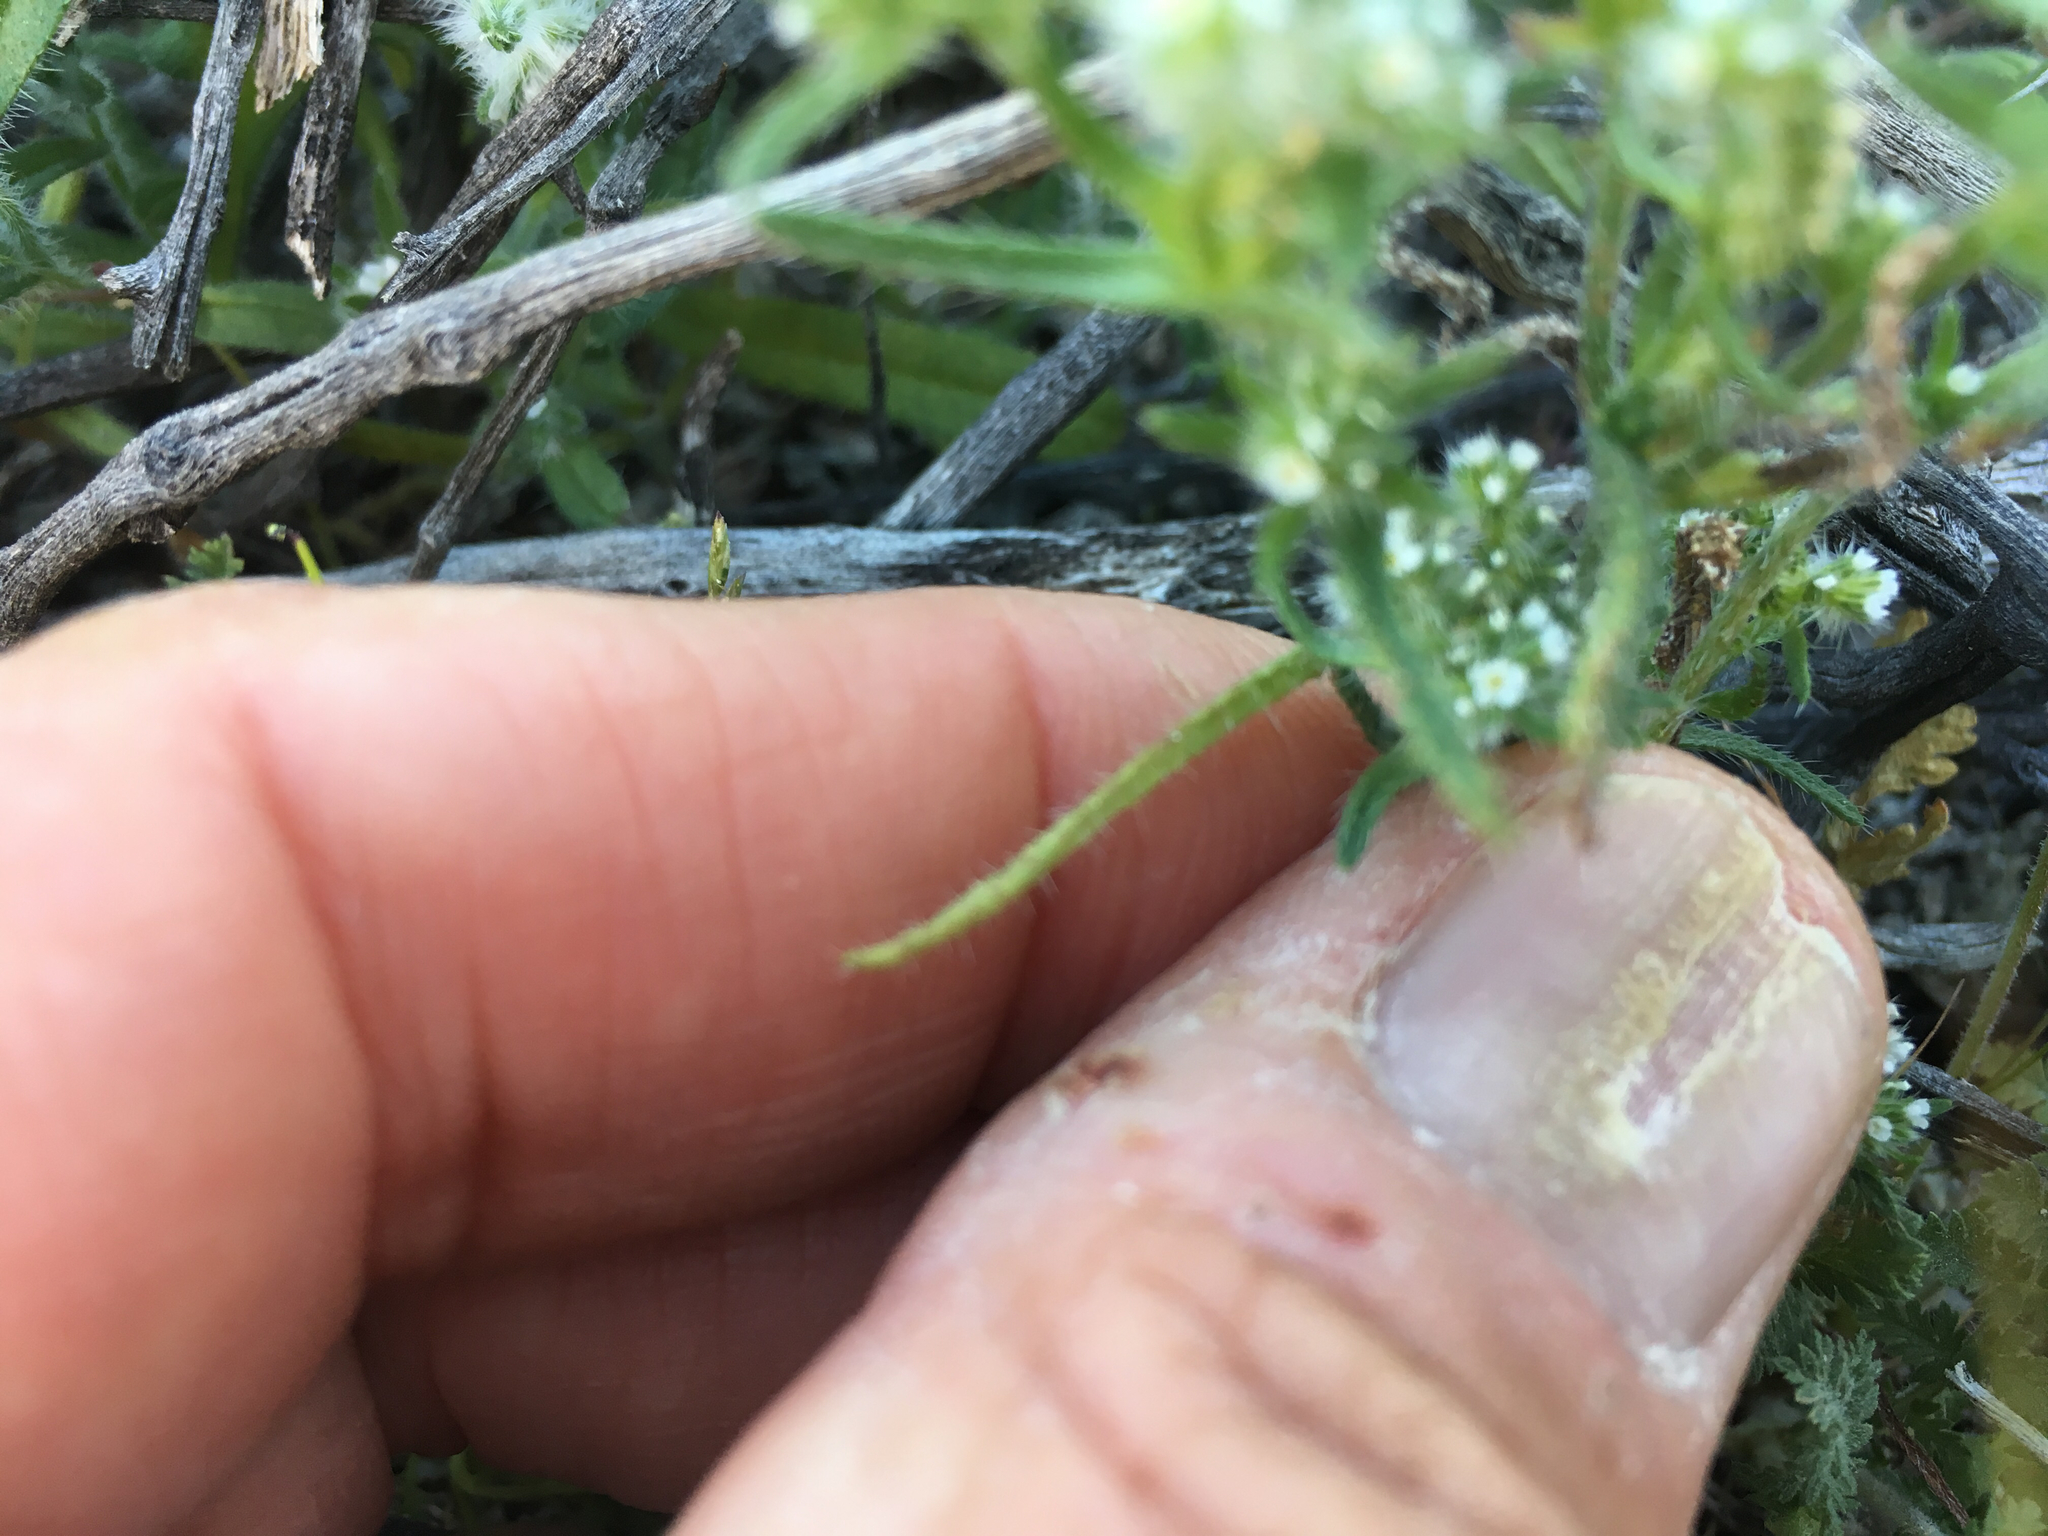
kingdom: Plantae
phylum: Tracheophyta
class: Magnoliopsida
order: Boraginales
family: Boraginaceae
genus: Cryptantha
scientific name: Cryptantha maritima
